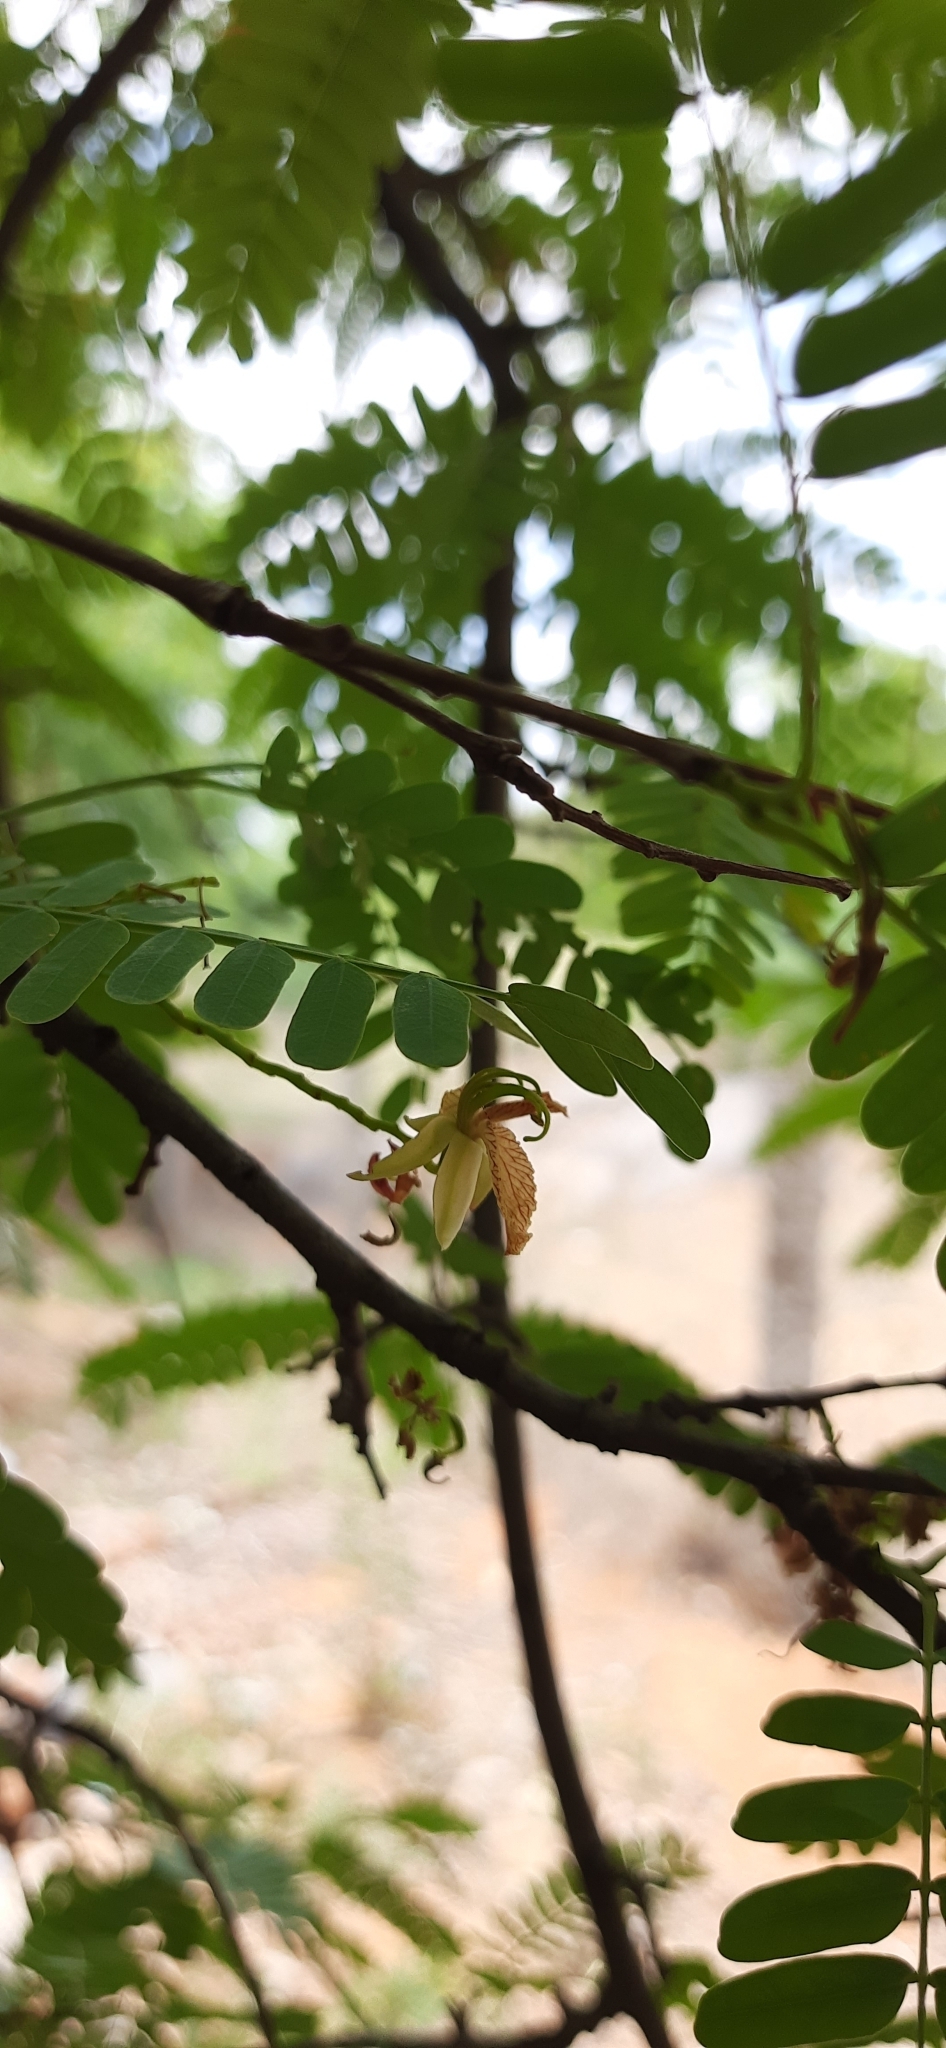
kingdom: Plantae
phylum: Tracheophyta
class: Magnoliopsida
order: Fabales
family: Fabaceae
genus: Tamarindus
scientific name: Tamarindus indica
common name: Tamarind
